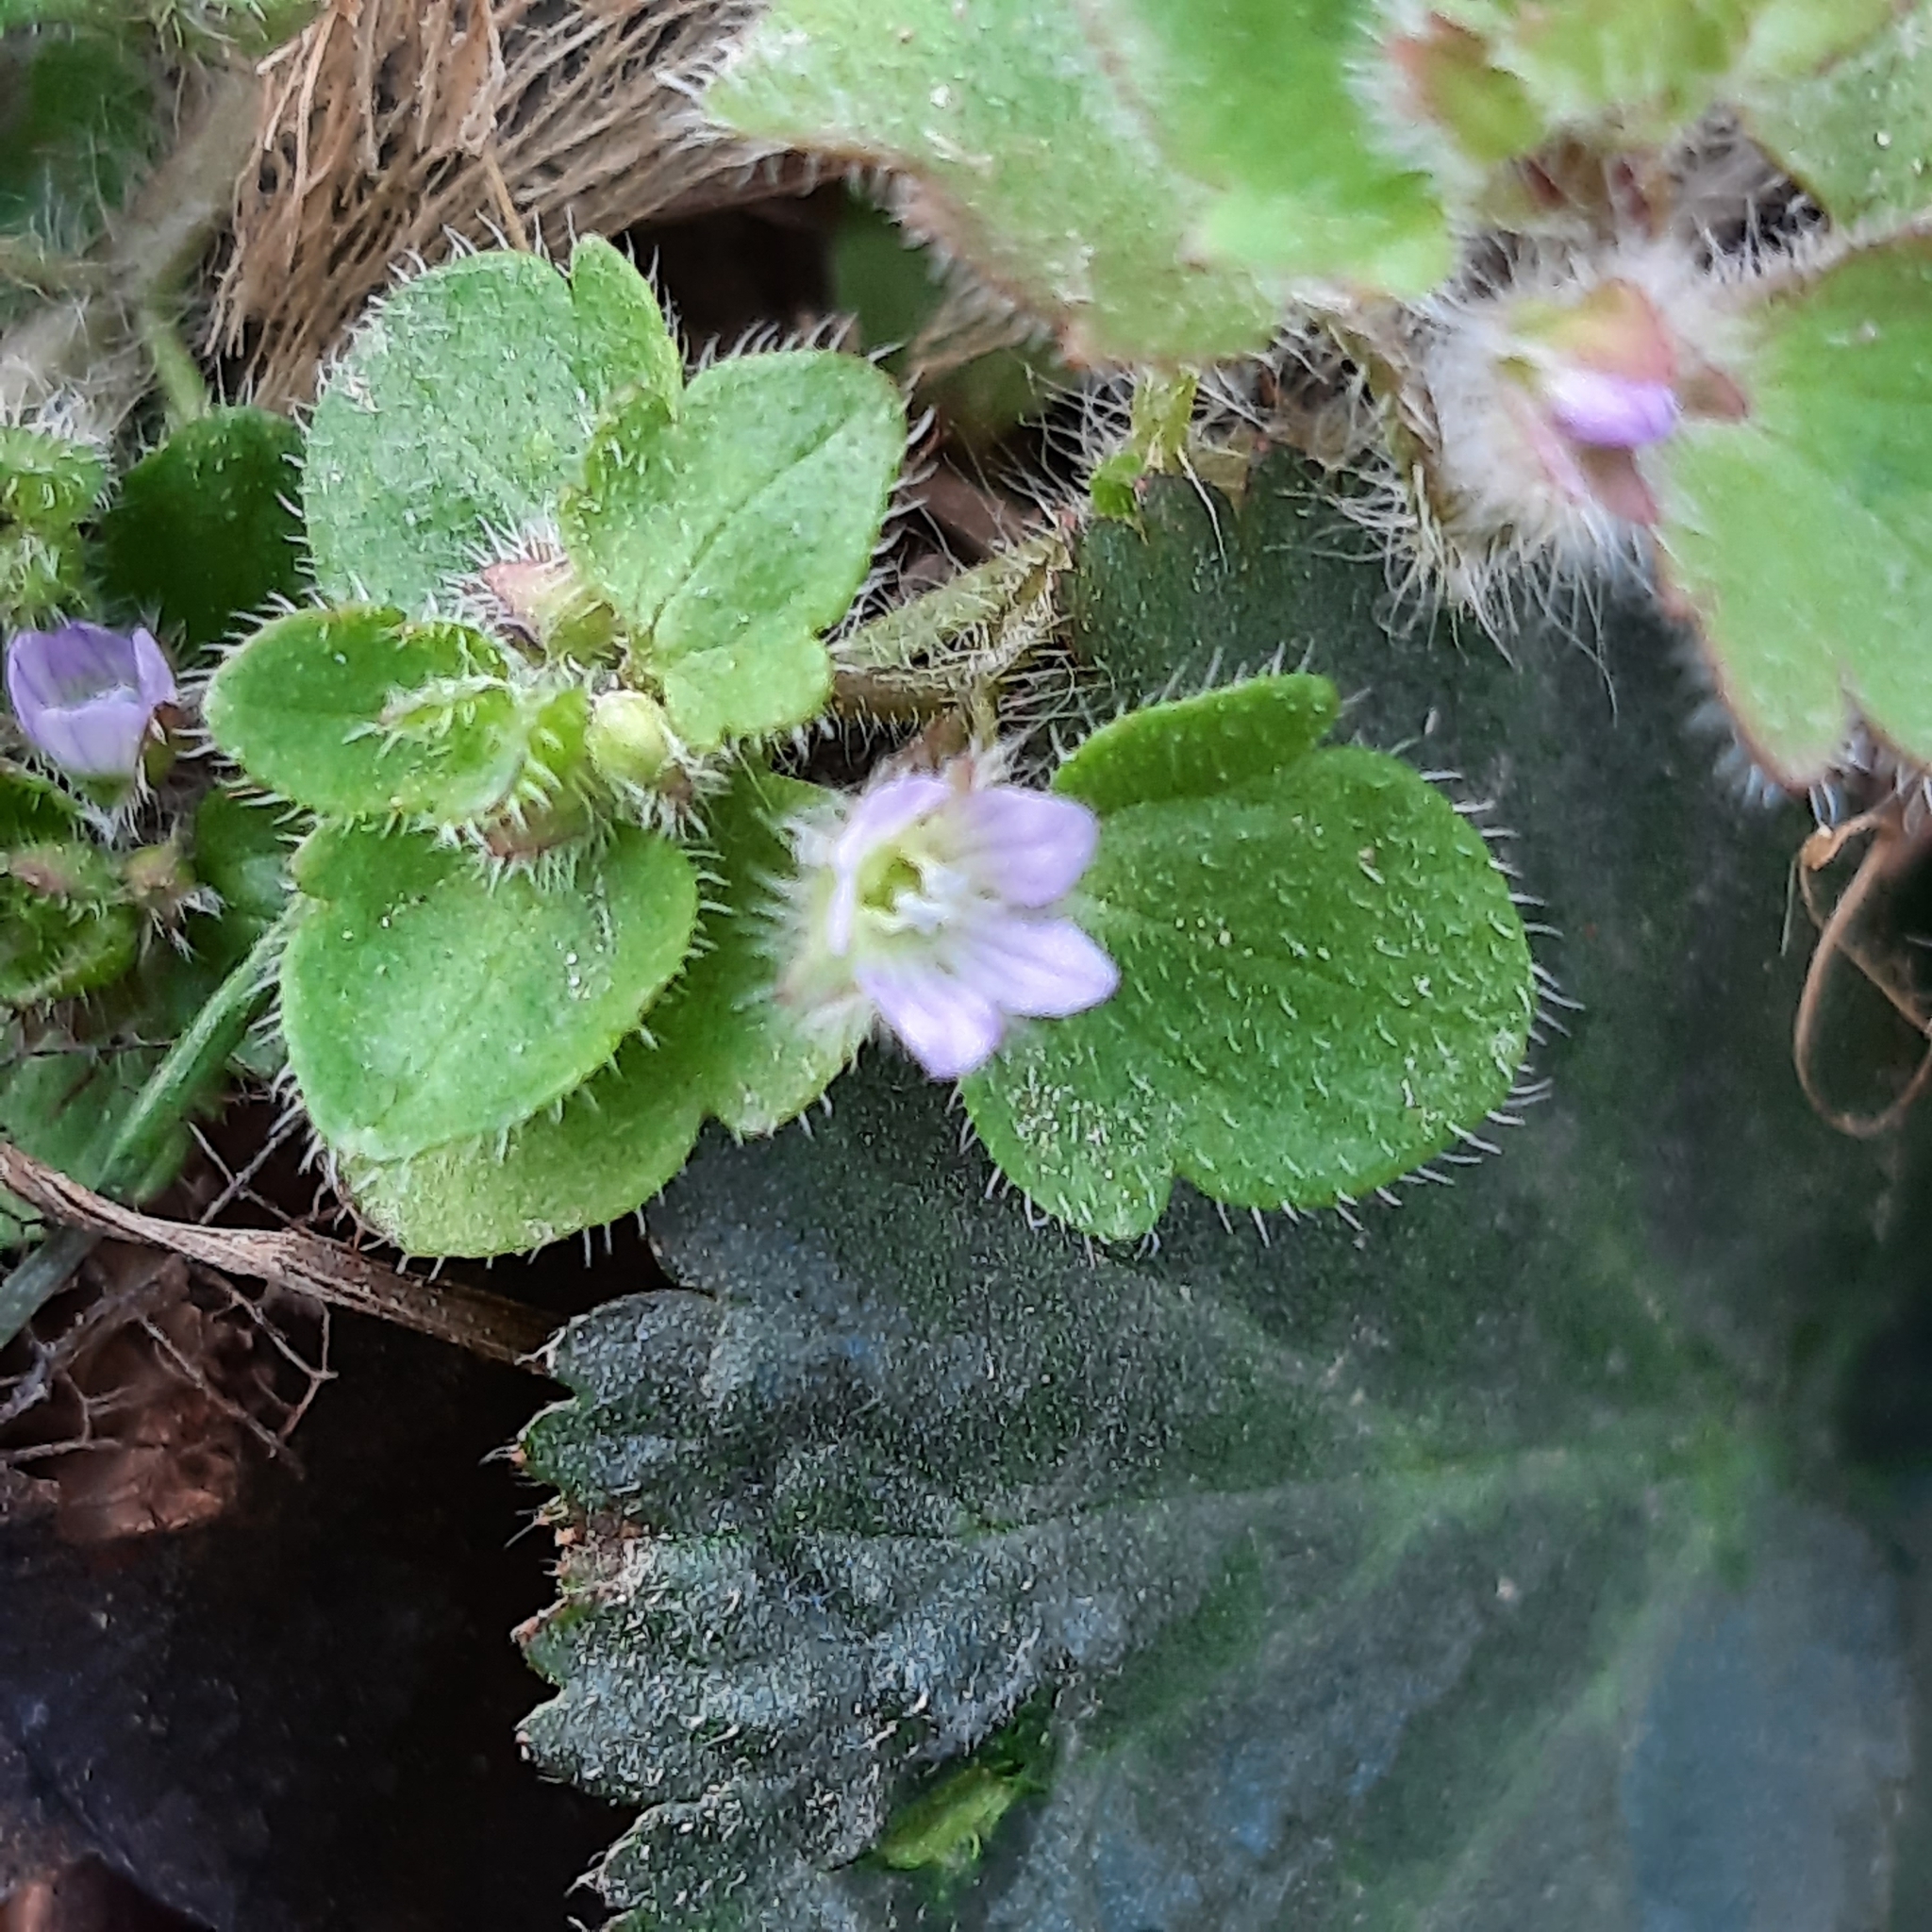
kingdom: Plantae
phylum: Tracheophyta
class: Magnoliopsida
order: Lamiales
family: Plantaginaceae
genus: Veronica
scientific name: Veronica sublobata
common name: False ivy-leaved speedwell
